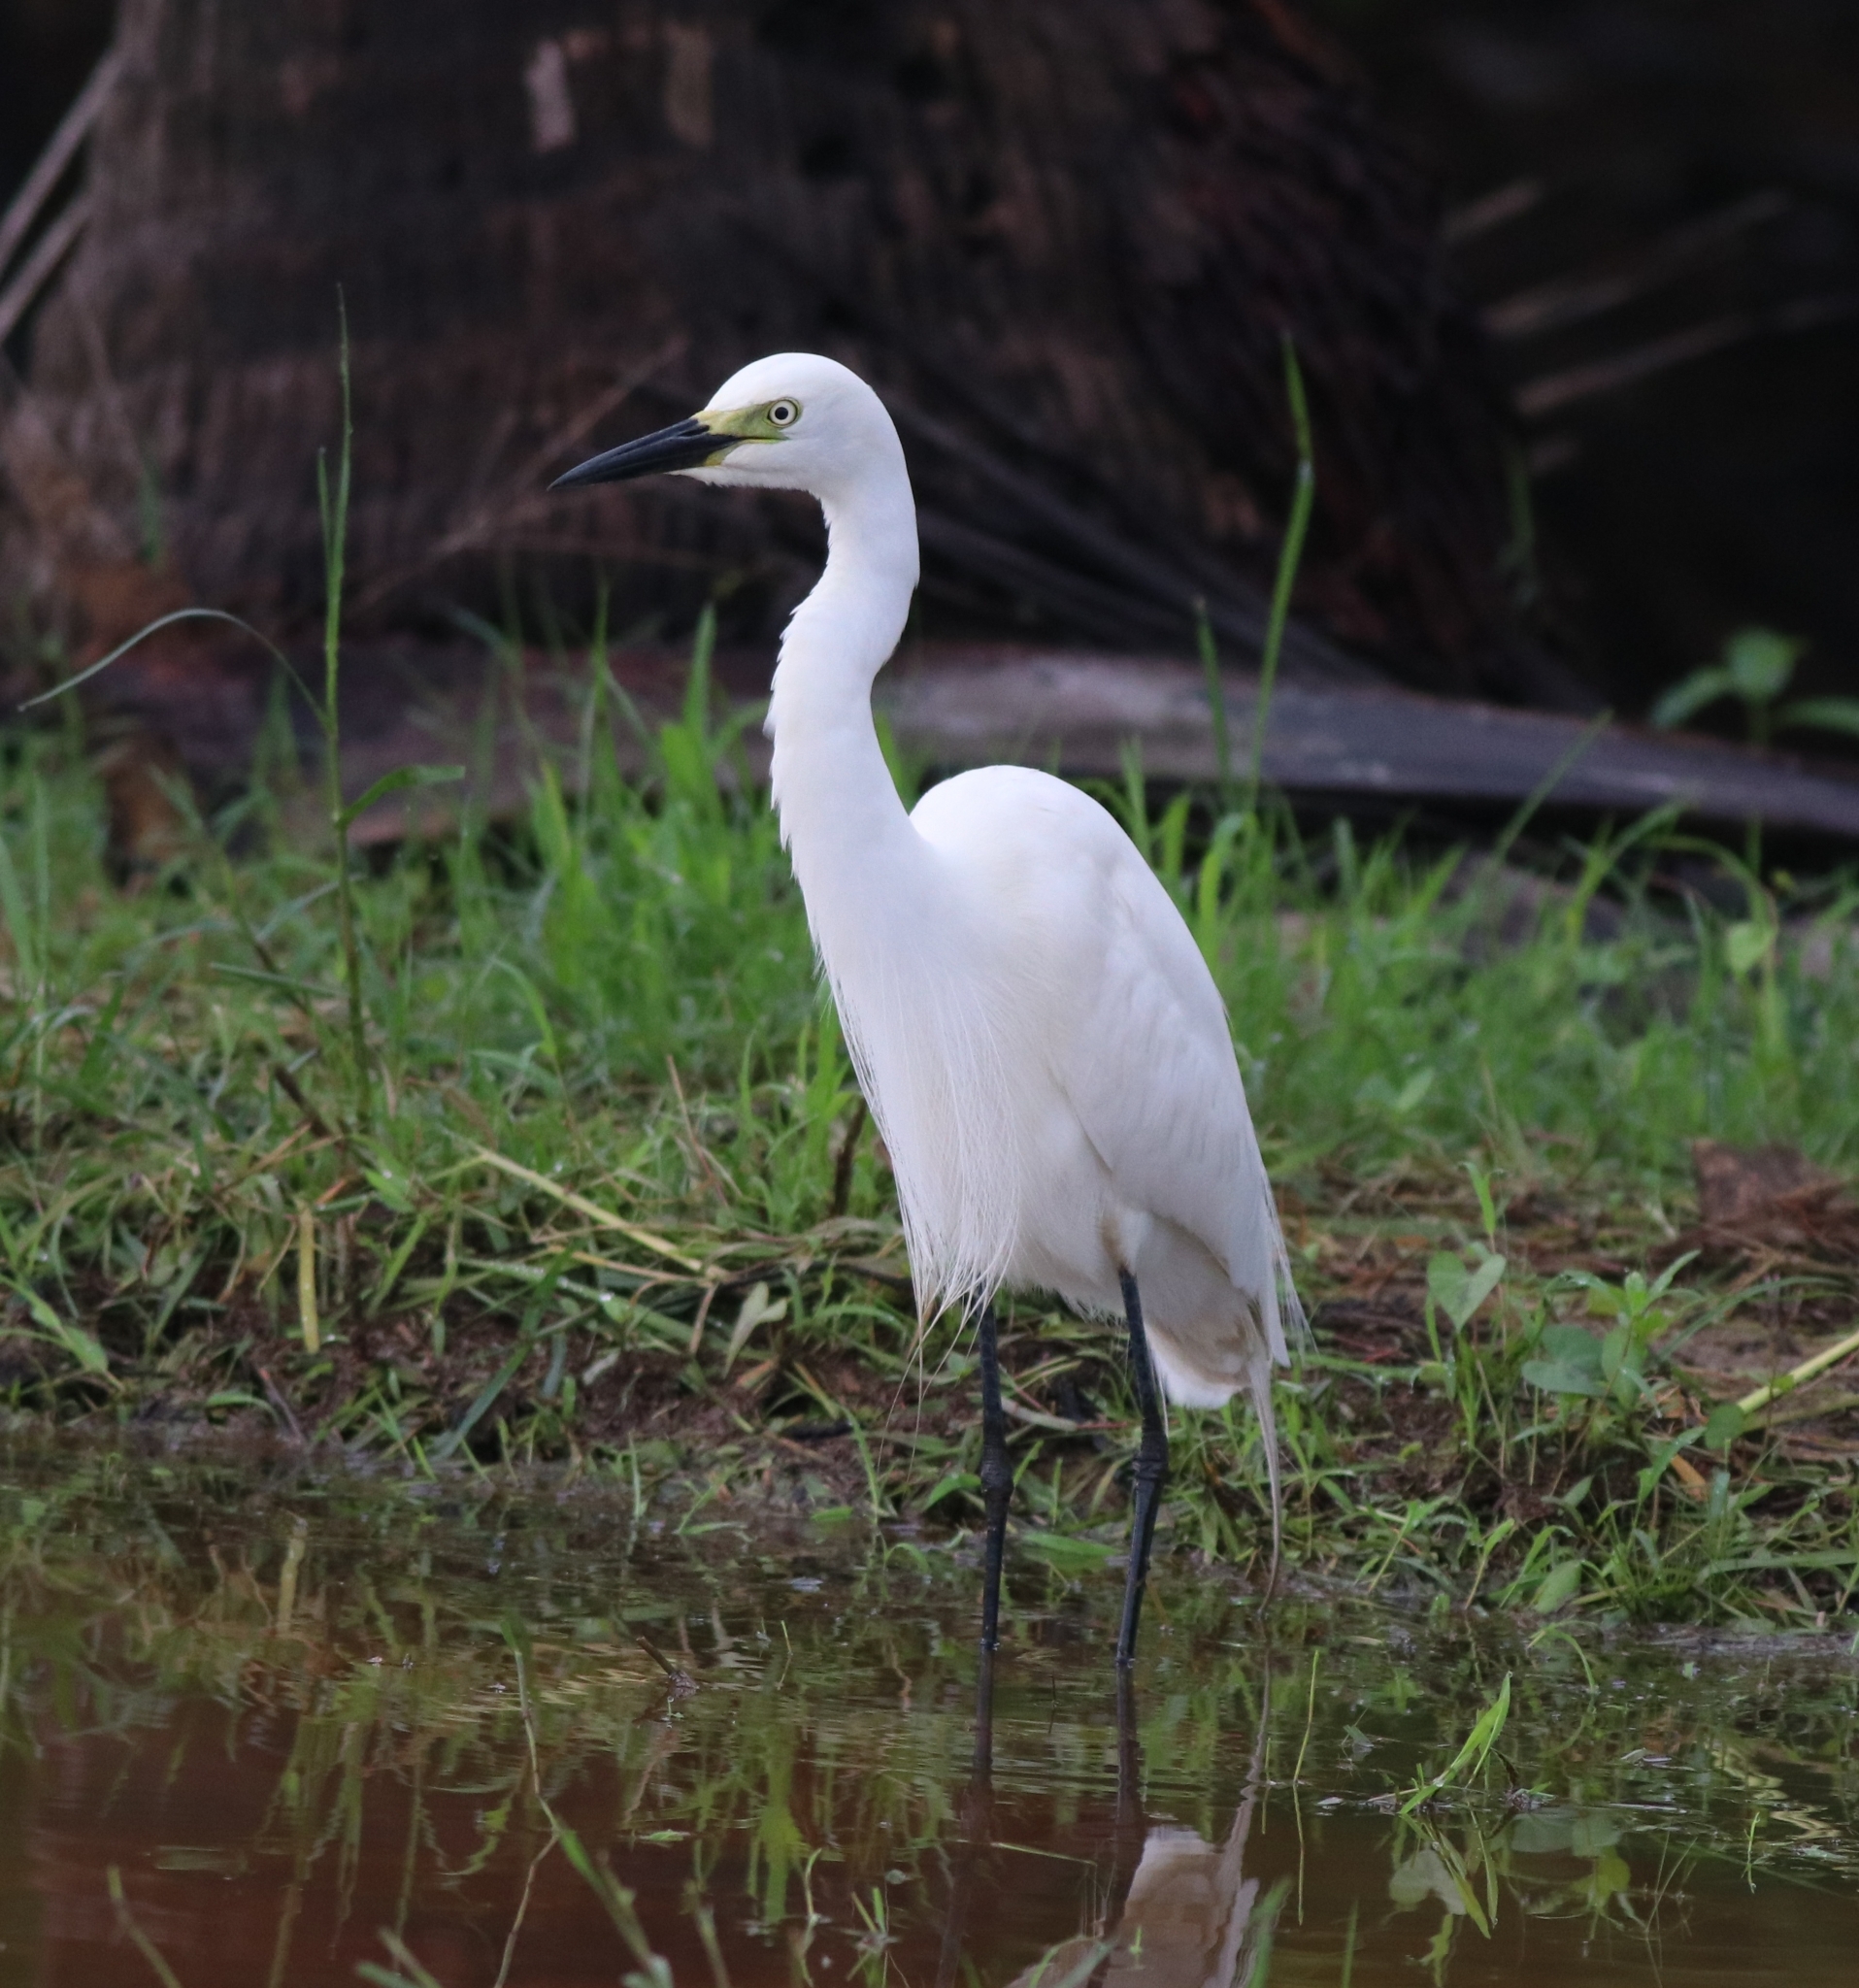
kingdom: Animalia
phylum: Chordata
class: Aves
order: Pelecaniformes
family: Ardeidae
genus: Egretta
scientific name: Egretta intermedia
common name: Intermediate egret
